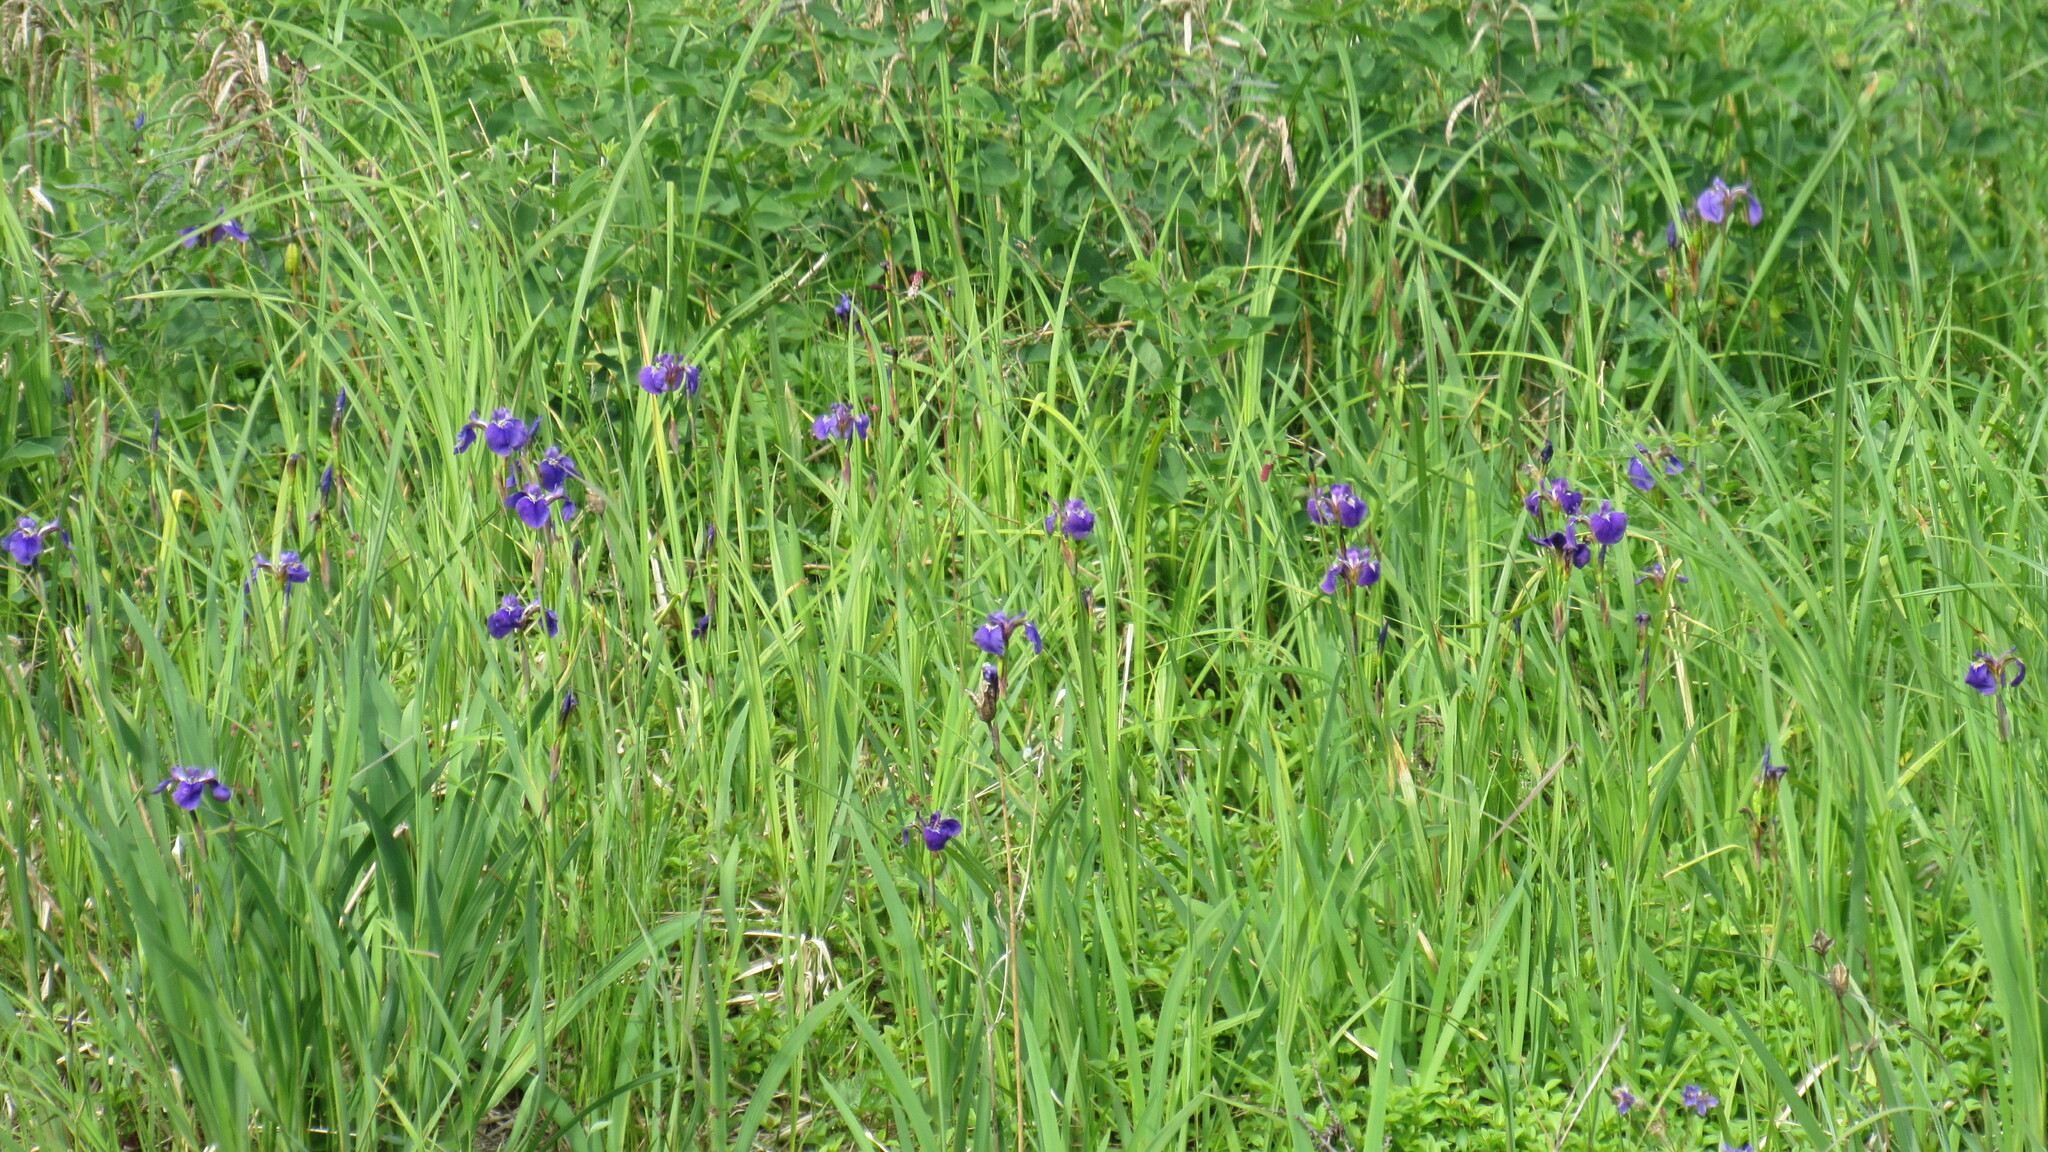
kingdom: Plantae
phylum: Tracheophyta
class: Liliopsida
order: Asparagales
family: Iridaceae
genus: Iris
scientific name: Iris setosa
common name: Arctic blue flag
